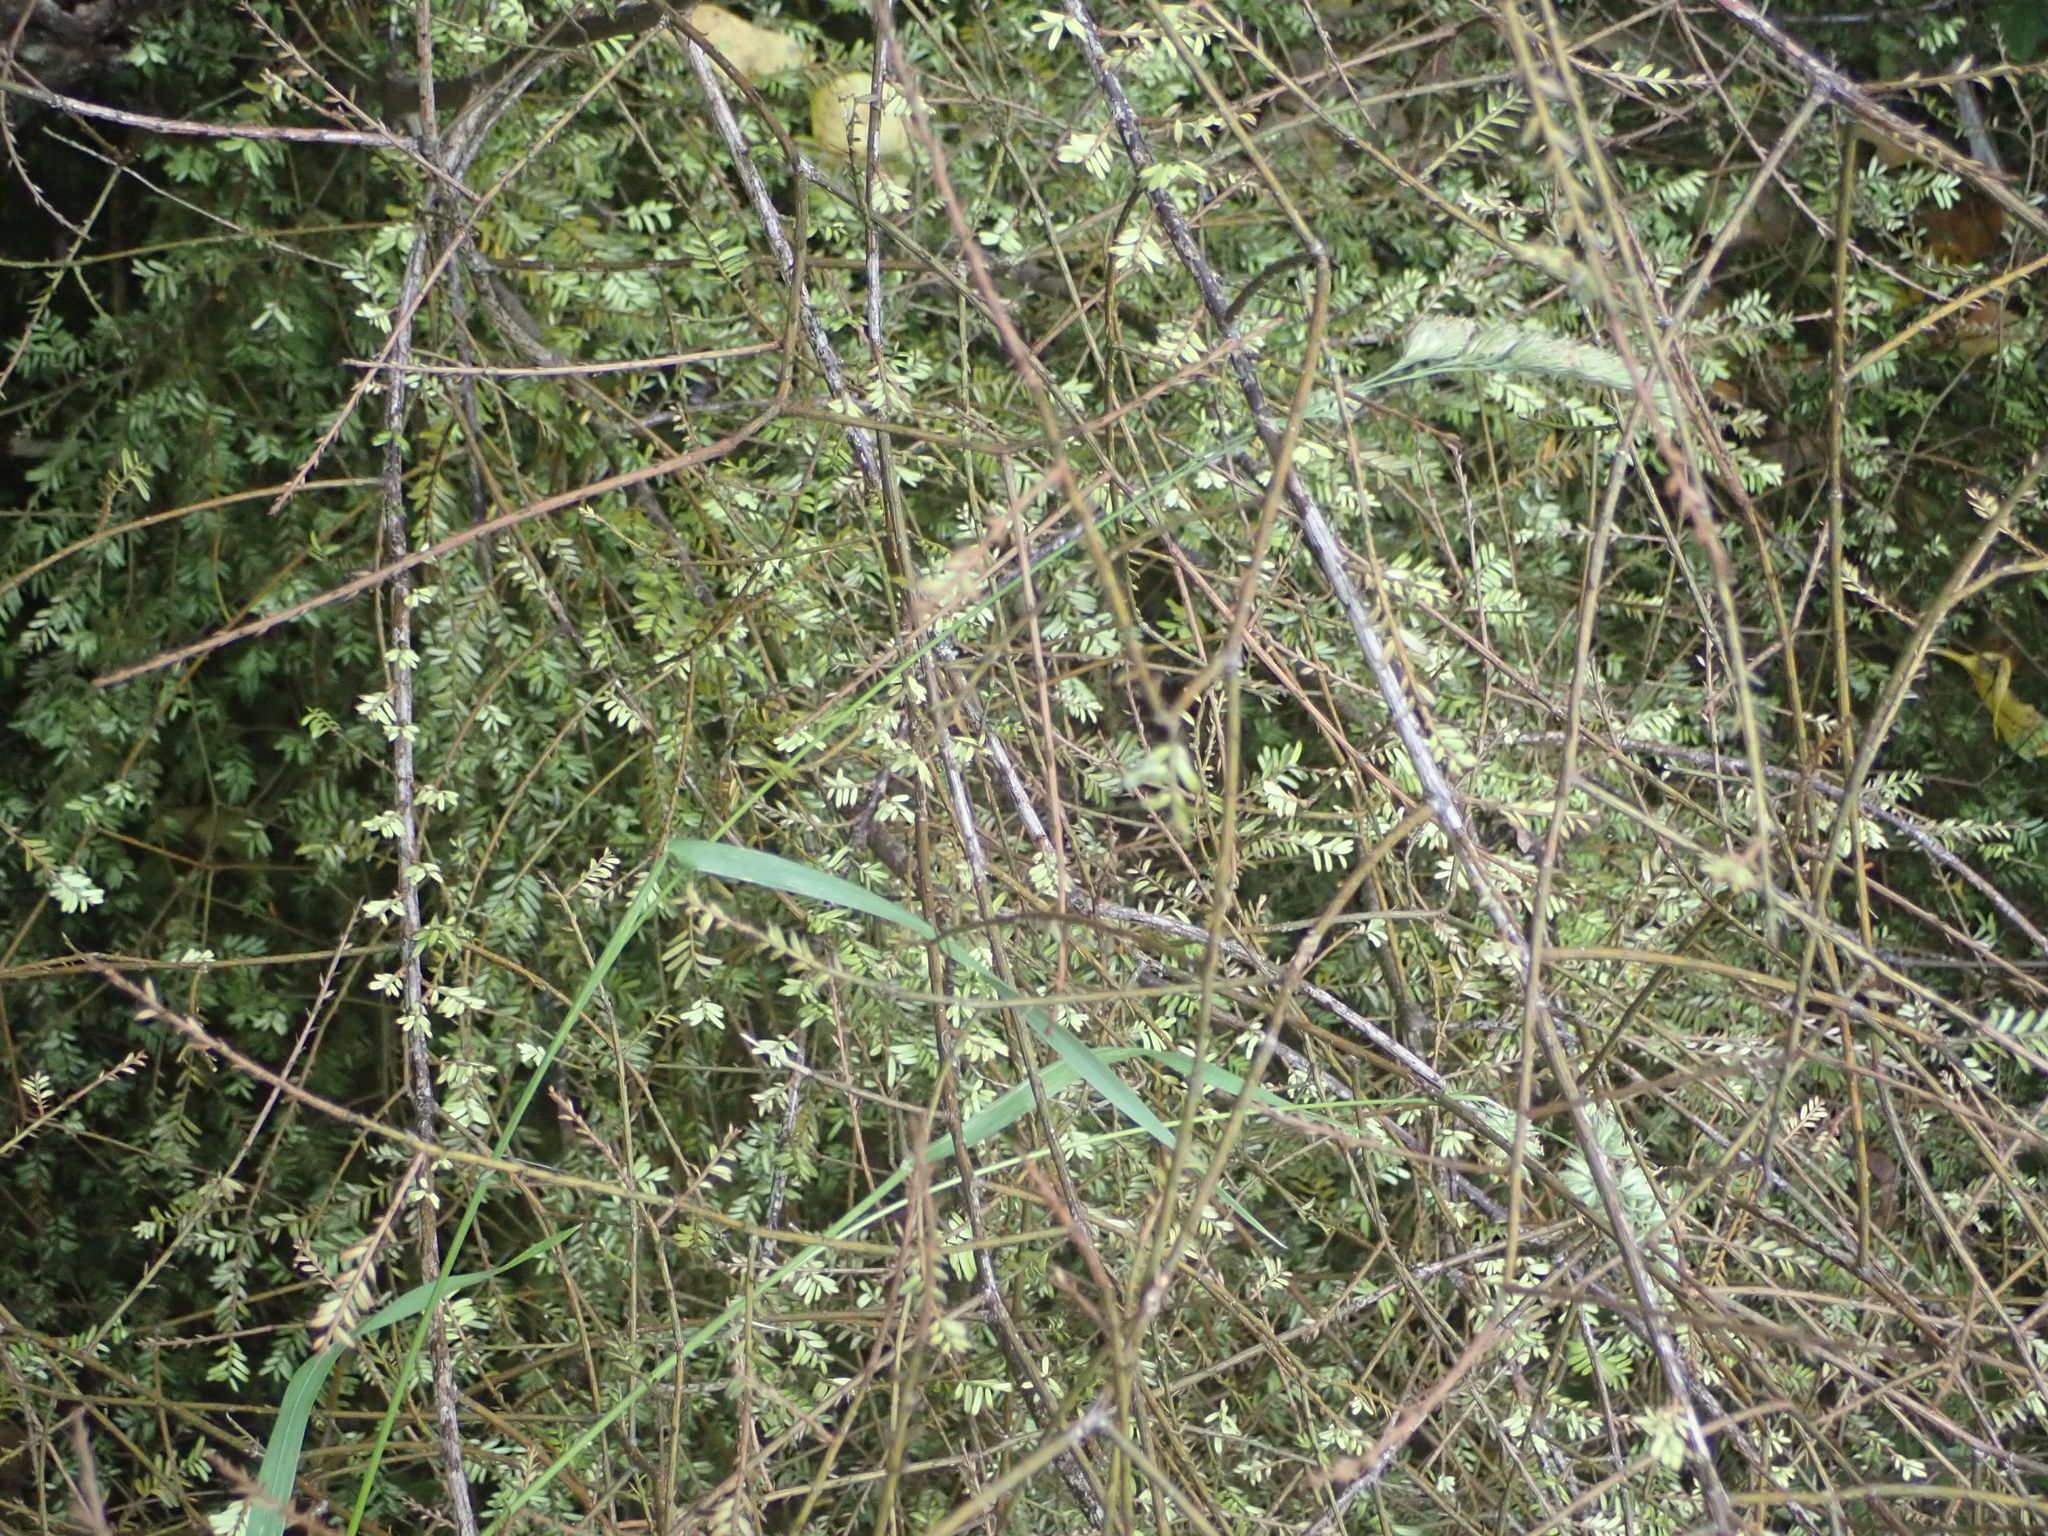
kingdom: Plantae
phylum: Tracheophyta
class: Pinopsida
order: Pinales
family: Podocarpaceae
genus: Prumnopitys
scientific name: Prumnopitys taxifolia
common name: Matai
